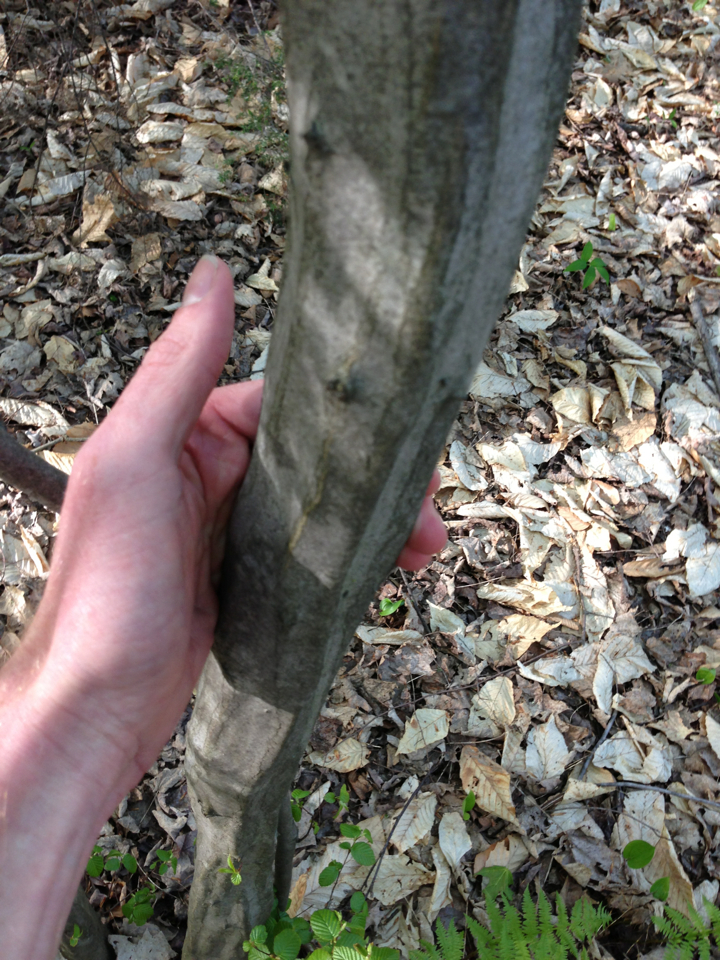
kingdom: Plantae
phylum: Tracheophyta
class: Magnoliopsida
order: Fagales
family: Betulaceae
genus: Carpinus
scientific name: Carpinus caroliniana
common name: American hornbeam
